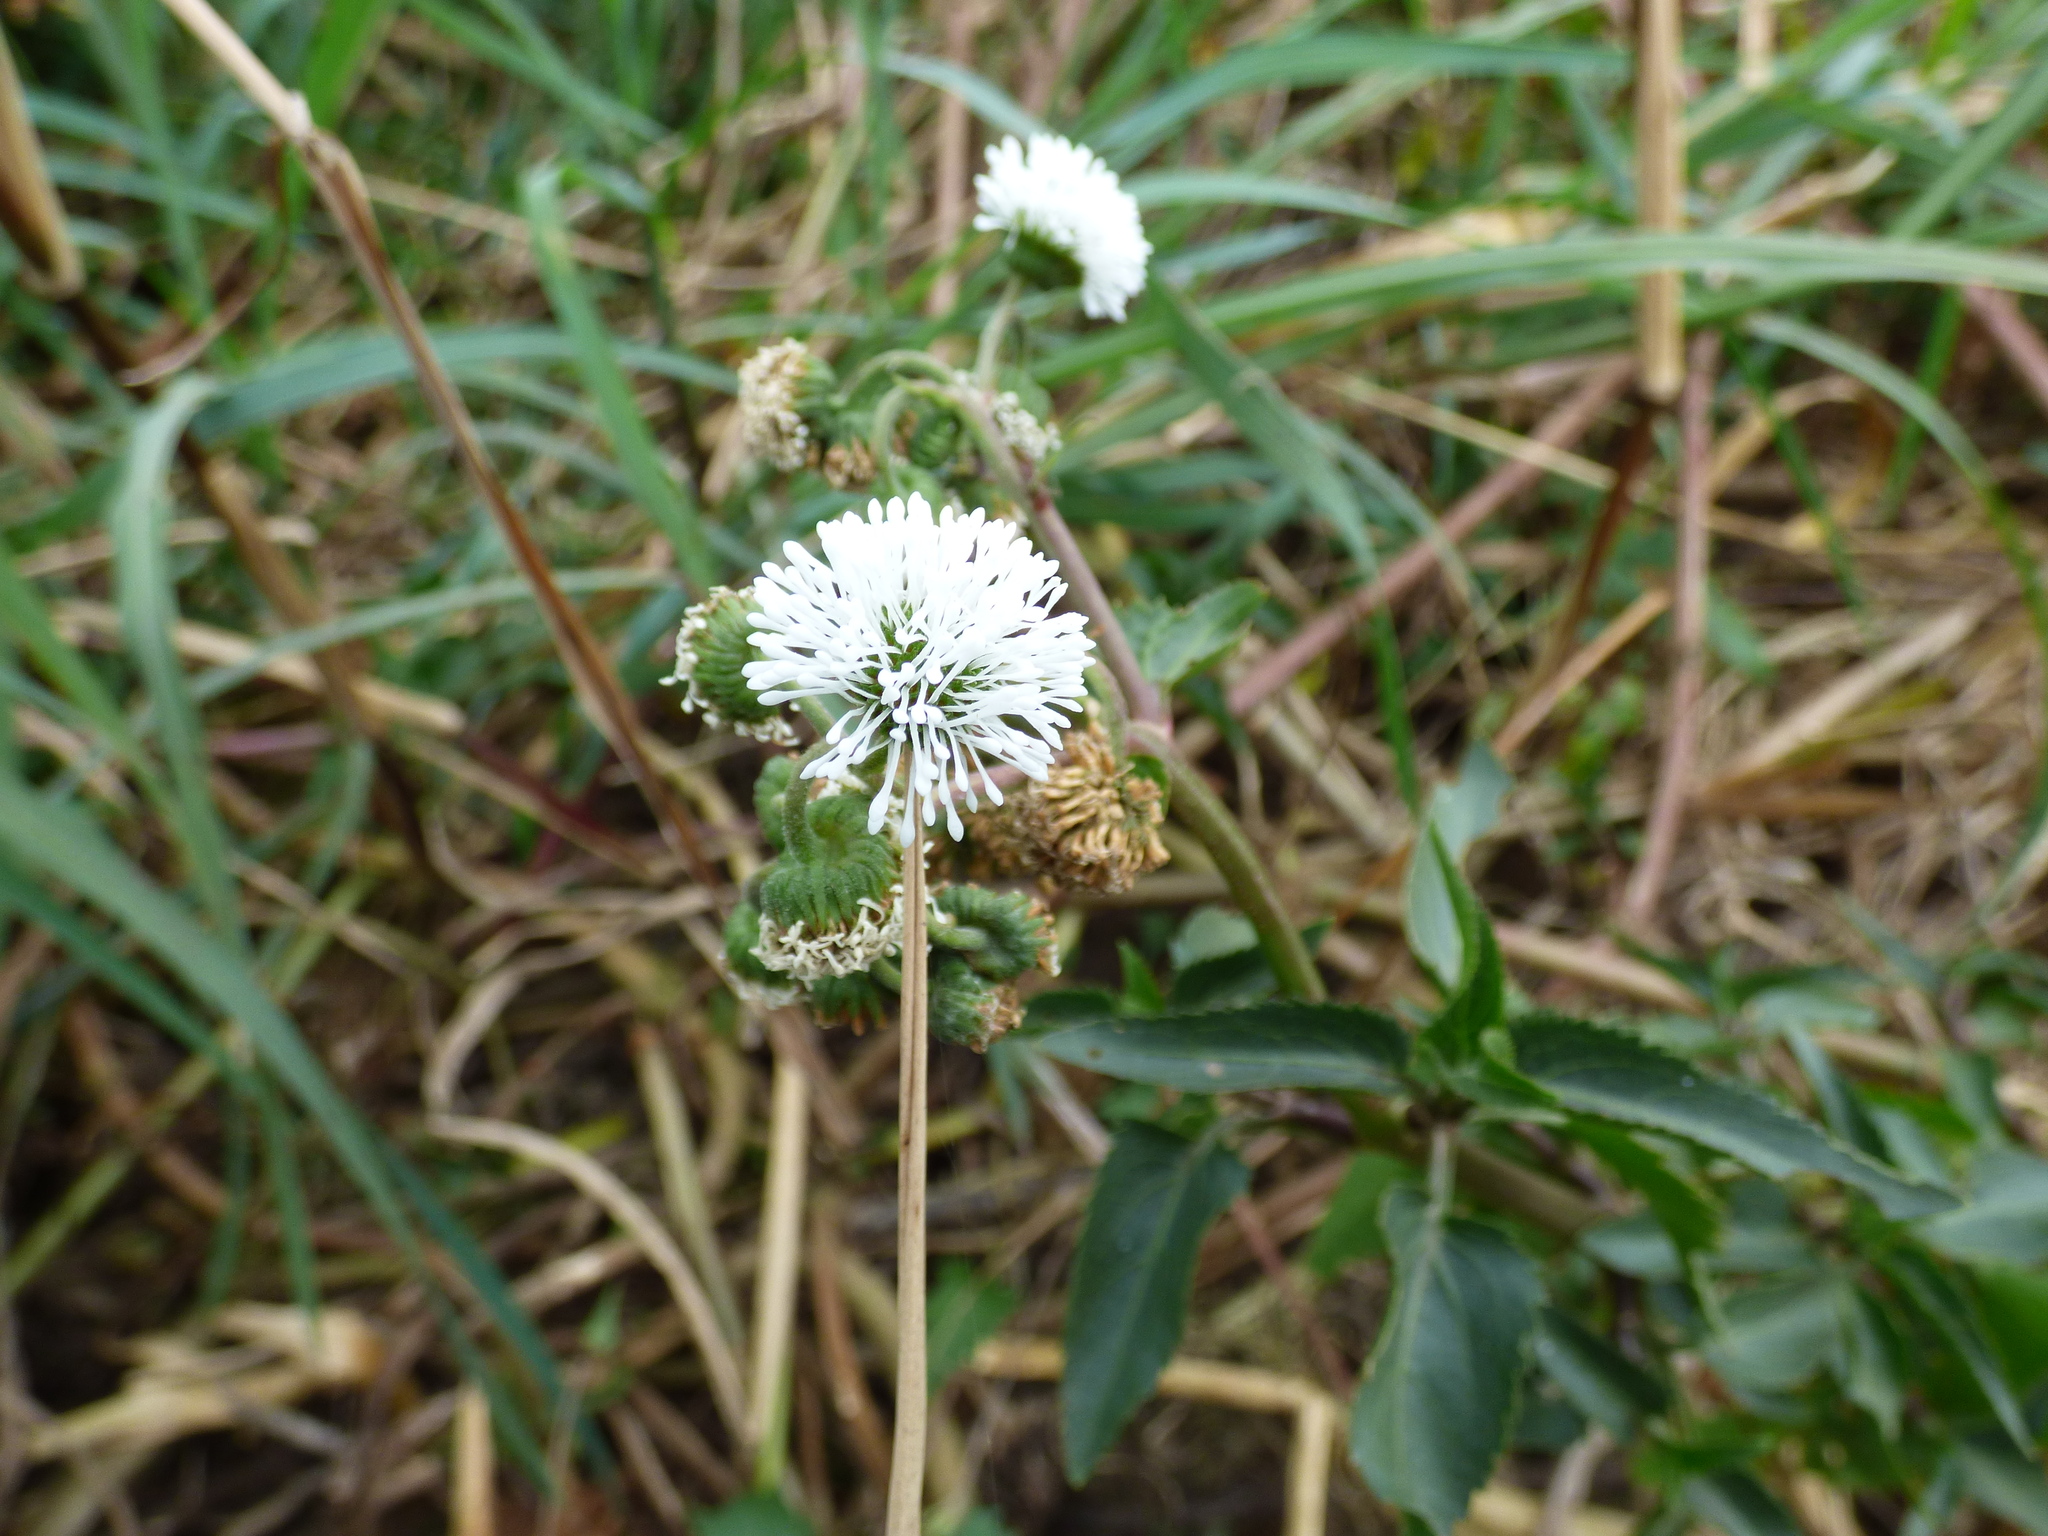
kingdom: Plantae
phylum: Tracheophyta
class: Magnoliopsida
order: Asterales
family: Asteraceae
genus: Gymnocoronis
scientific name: Gymnocoronis spilanthoides
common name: Senegal teaplant
